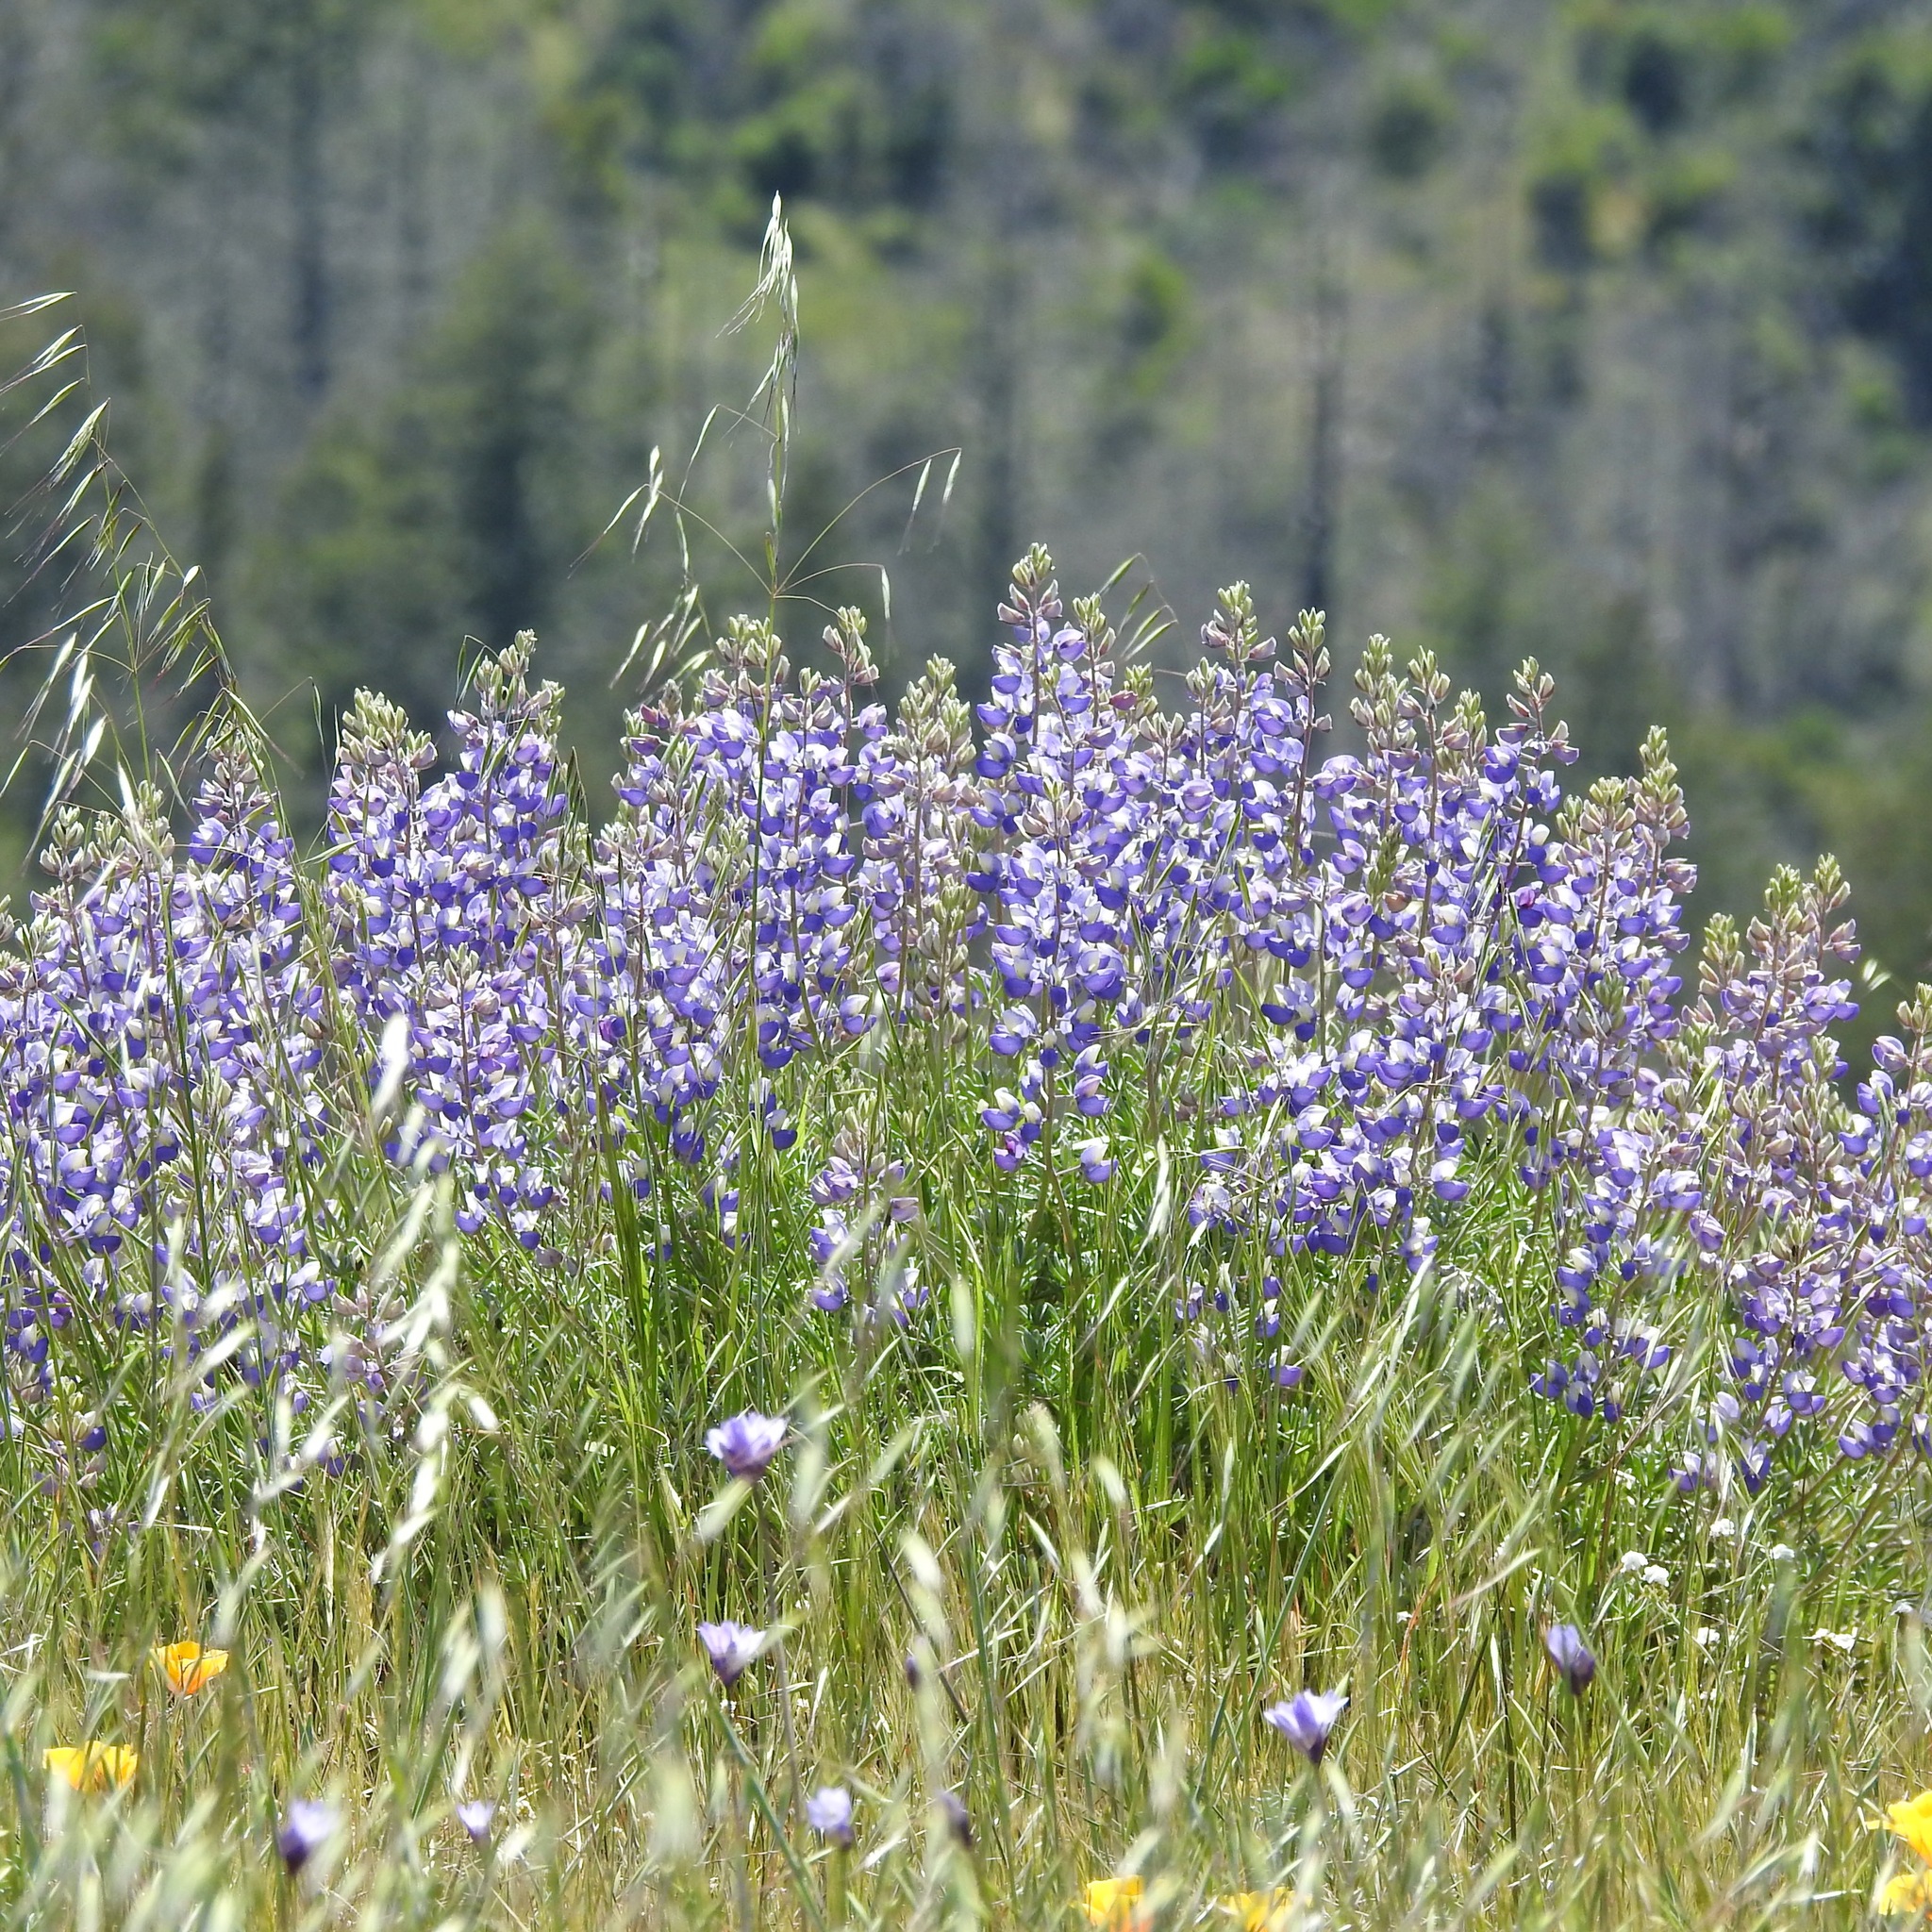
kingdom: Plantae
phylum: Tracheophyta
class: Magnoliopsida
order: Fabales
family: Fabaceae
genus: Lupinus
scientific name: Lupinus albifrons
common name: Foothill lupine
